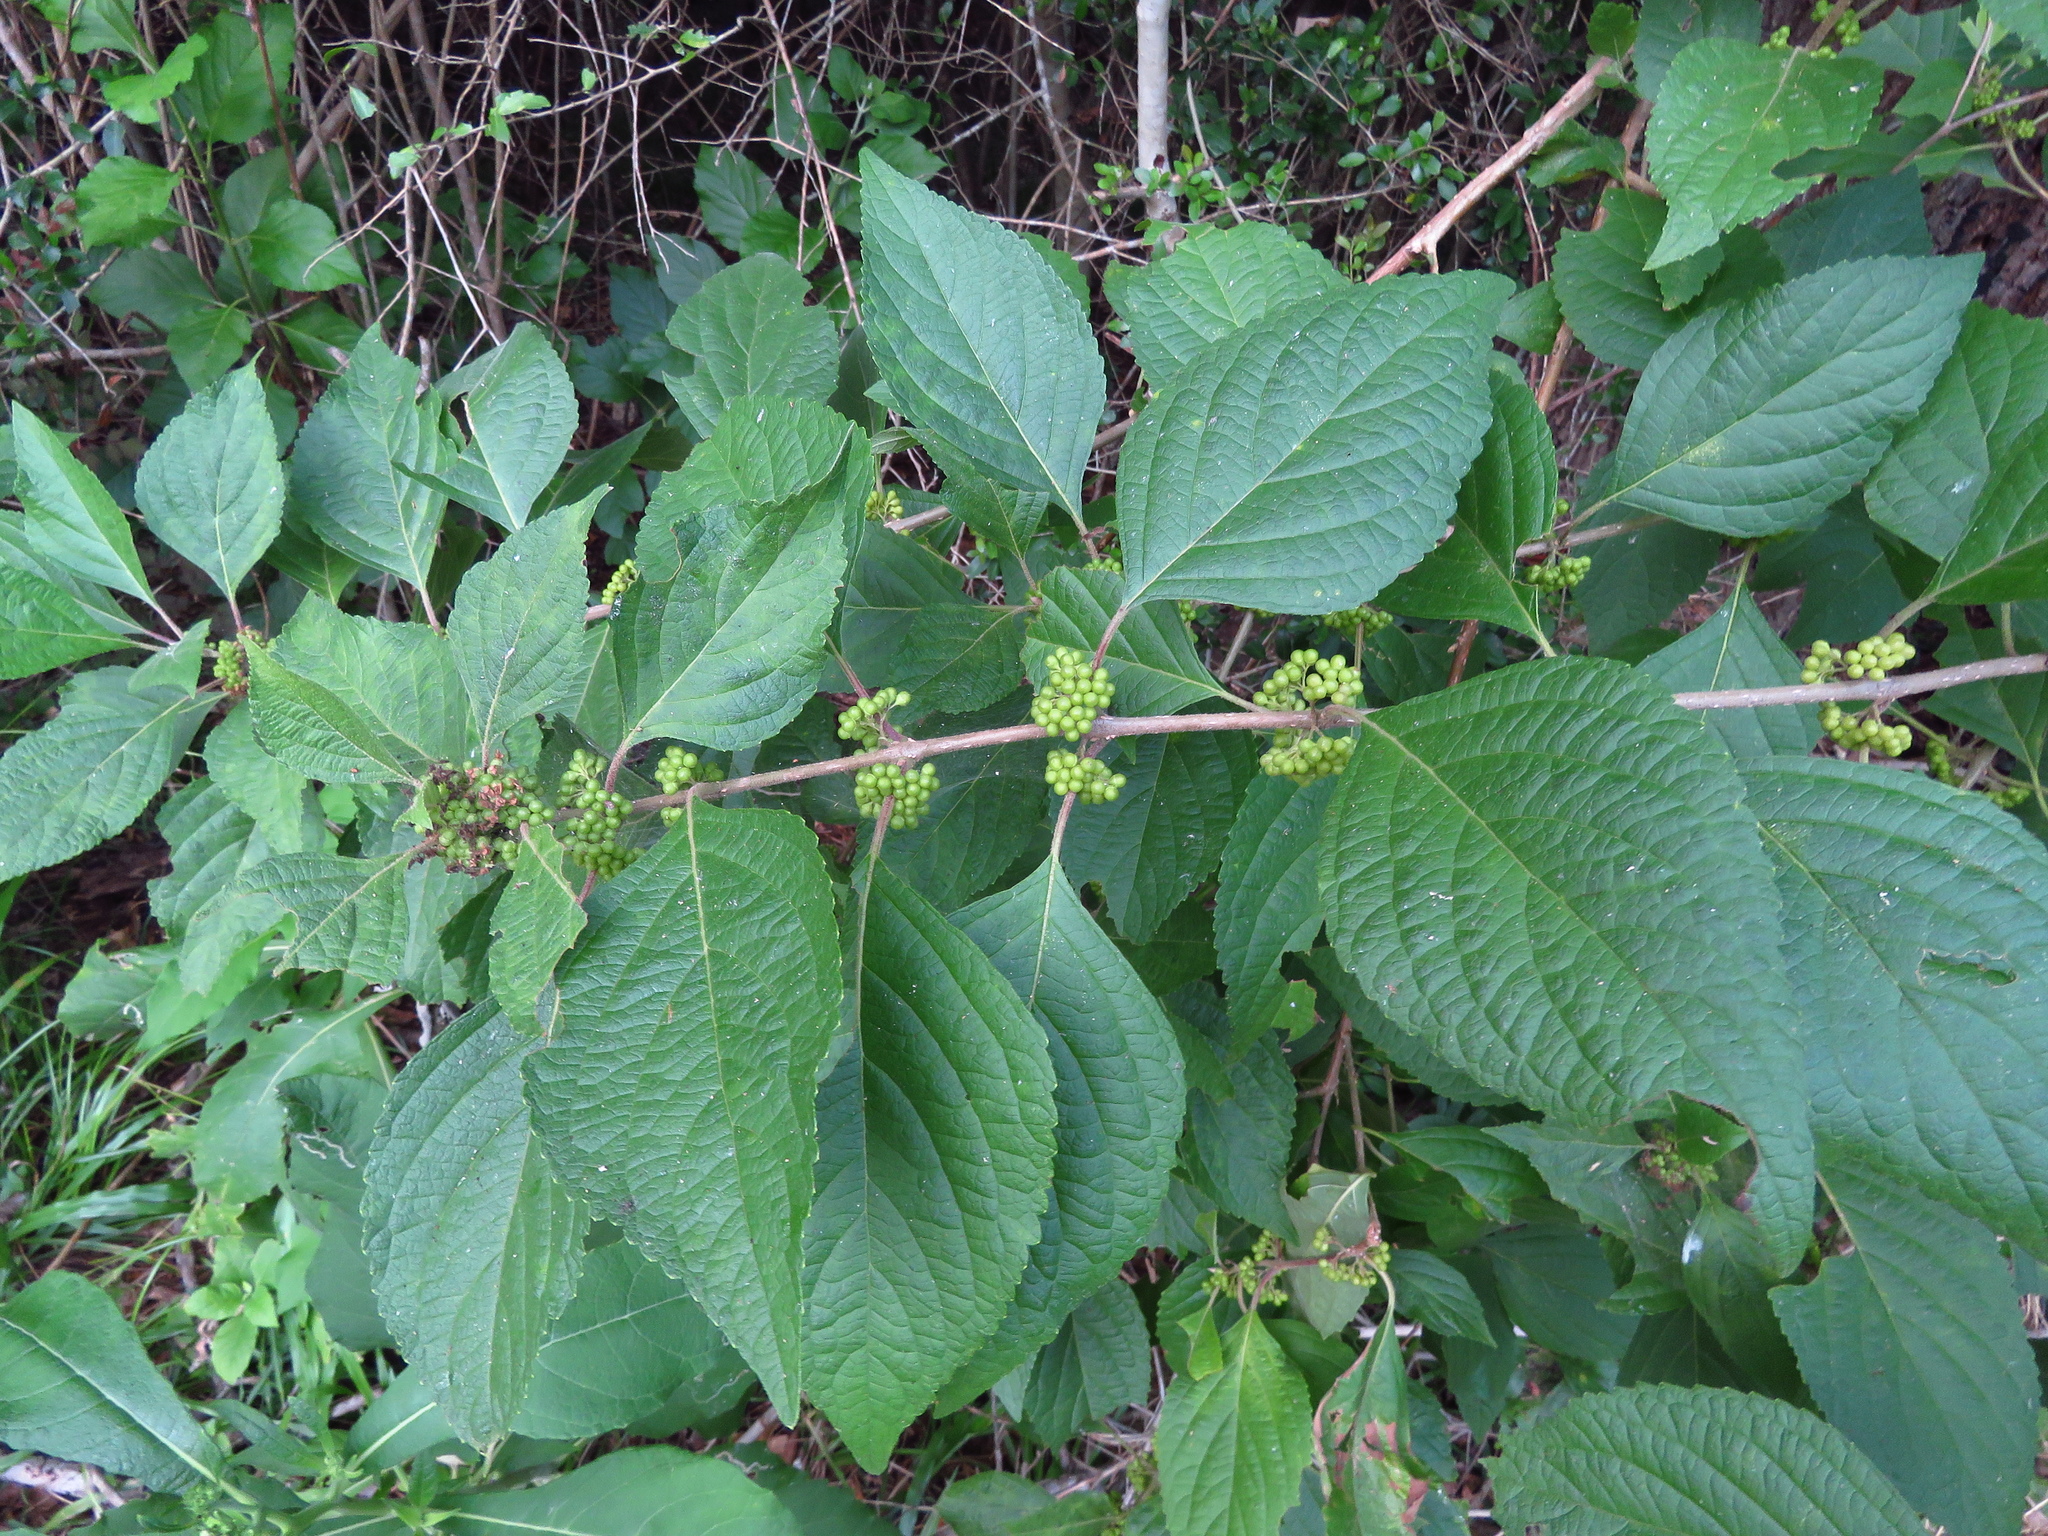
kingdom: Plantae
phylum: Tracheophyta
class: Magnoliopsida
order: Lamiales
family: Lamiaceae
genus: Callicarpa
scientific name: Callicarpa americana
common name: American beautyberry
